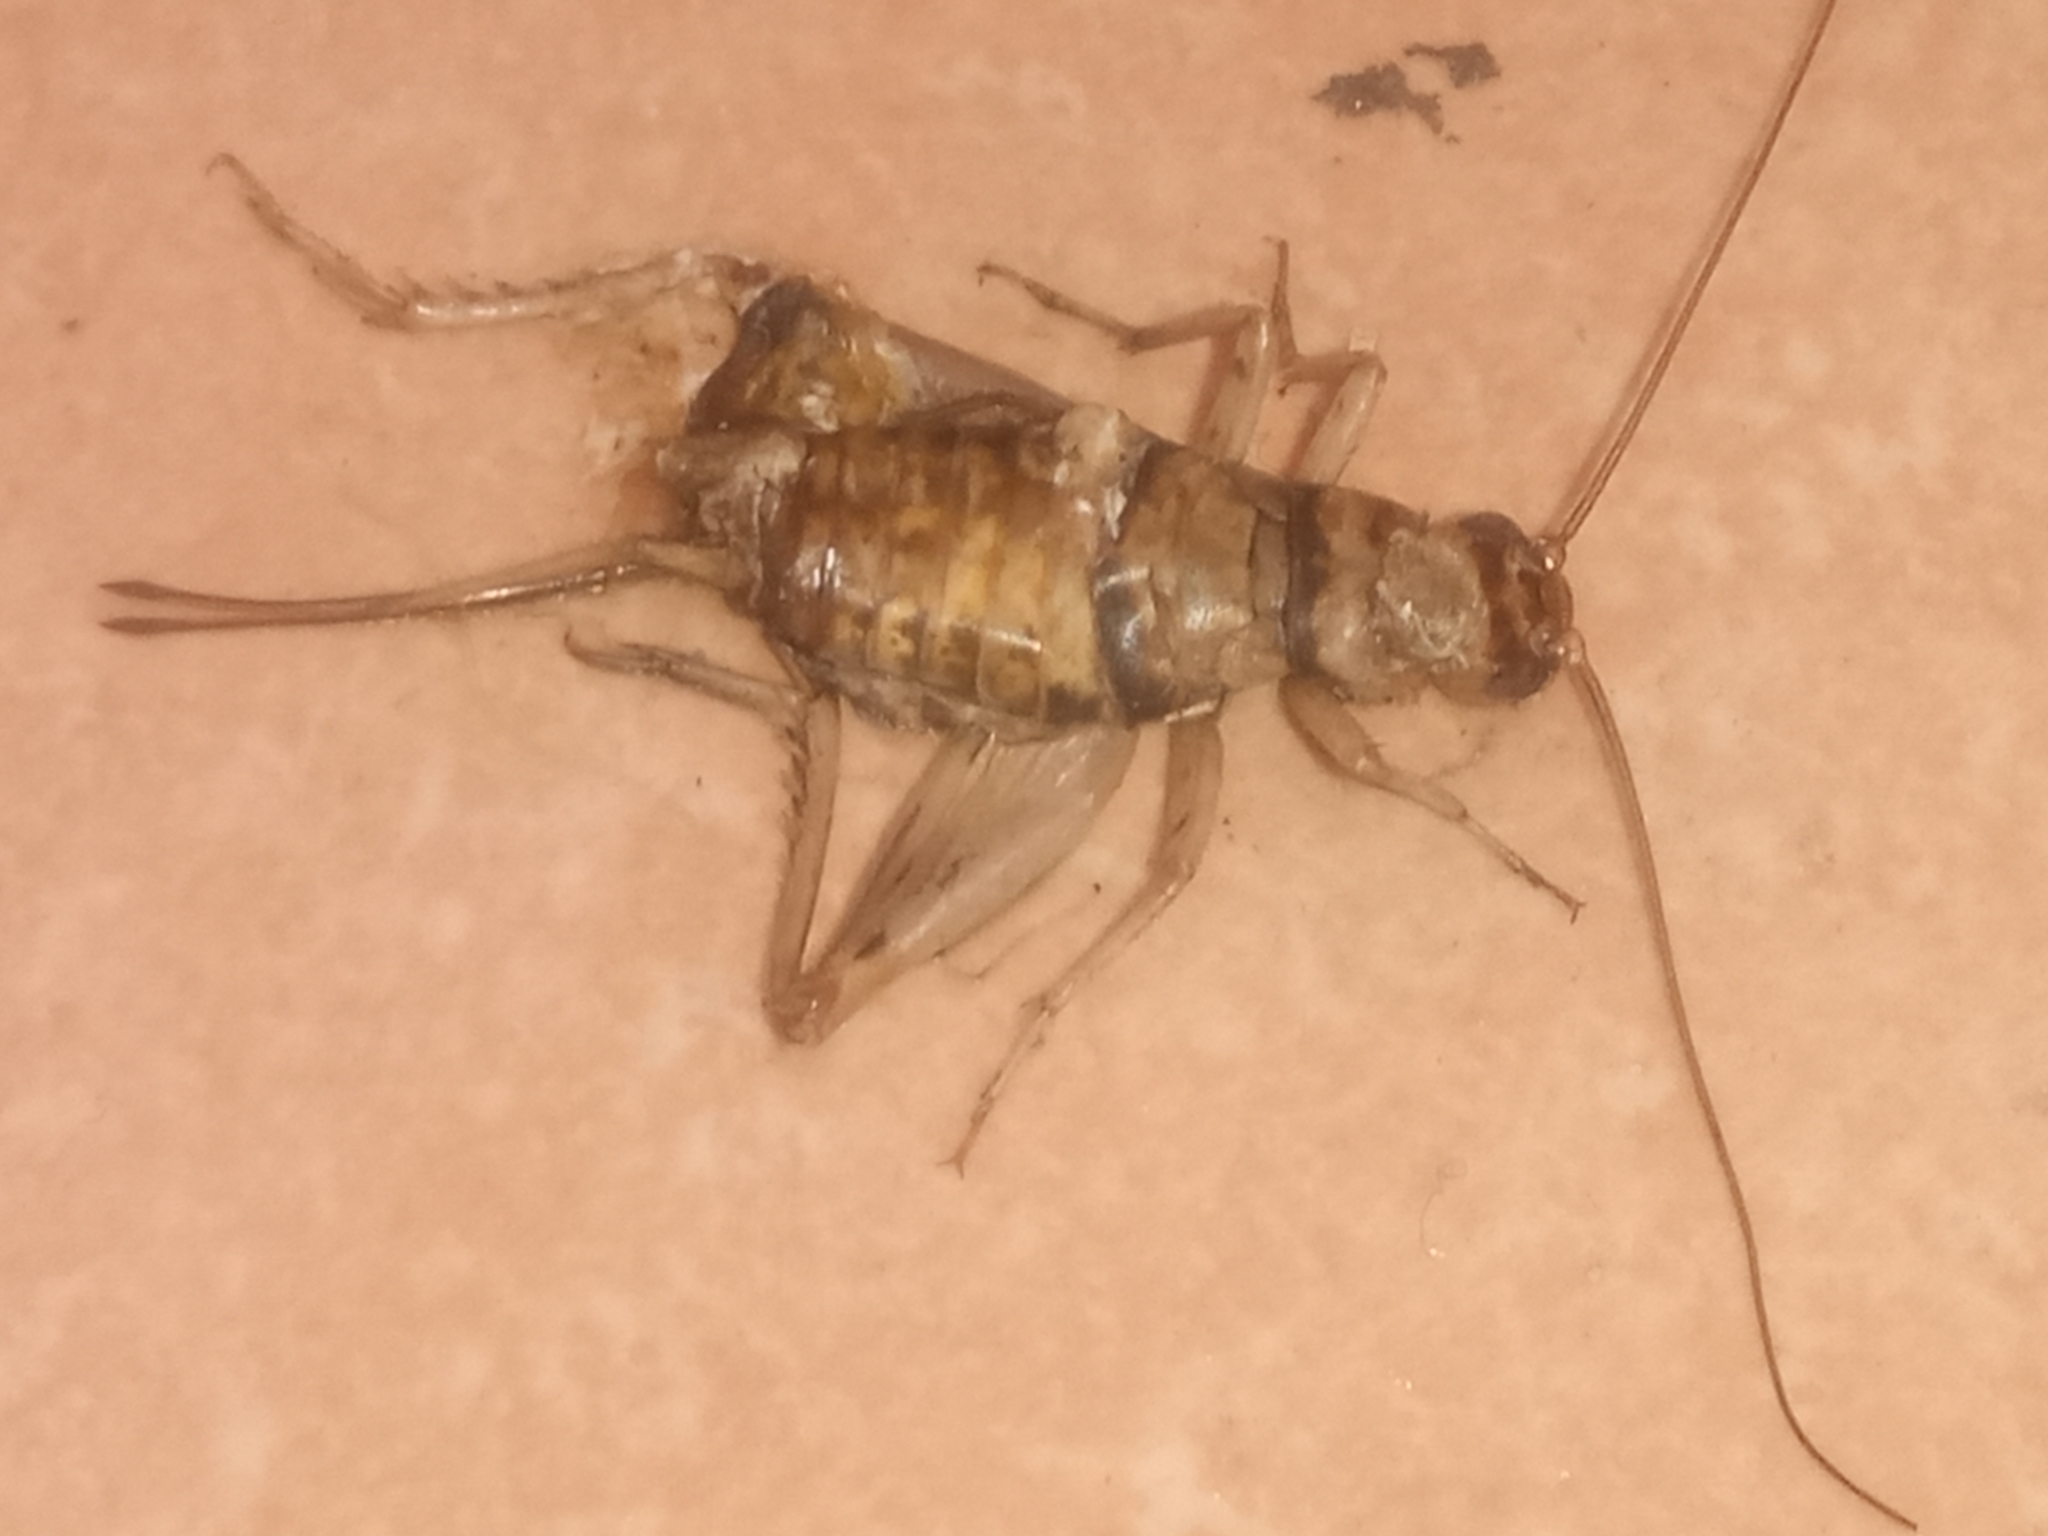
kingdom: Animalia
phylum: Arthropoda
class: Insecta
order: Orthoptera
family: Gryllidae
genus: Gryllodes
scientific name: Gryllodes sigillatus
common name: Tropical house cricket
